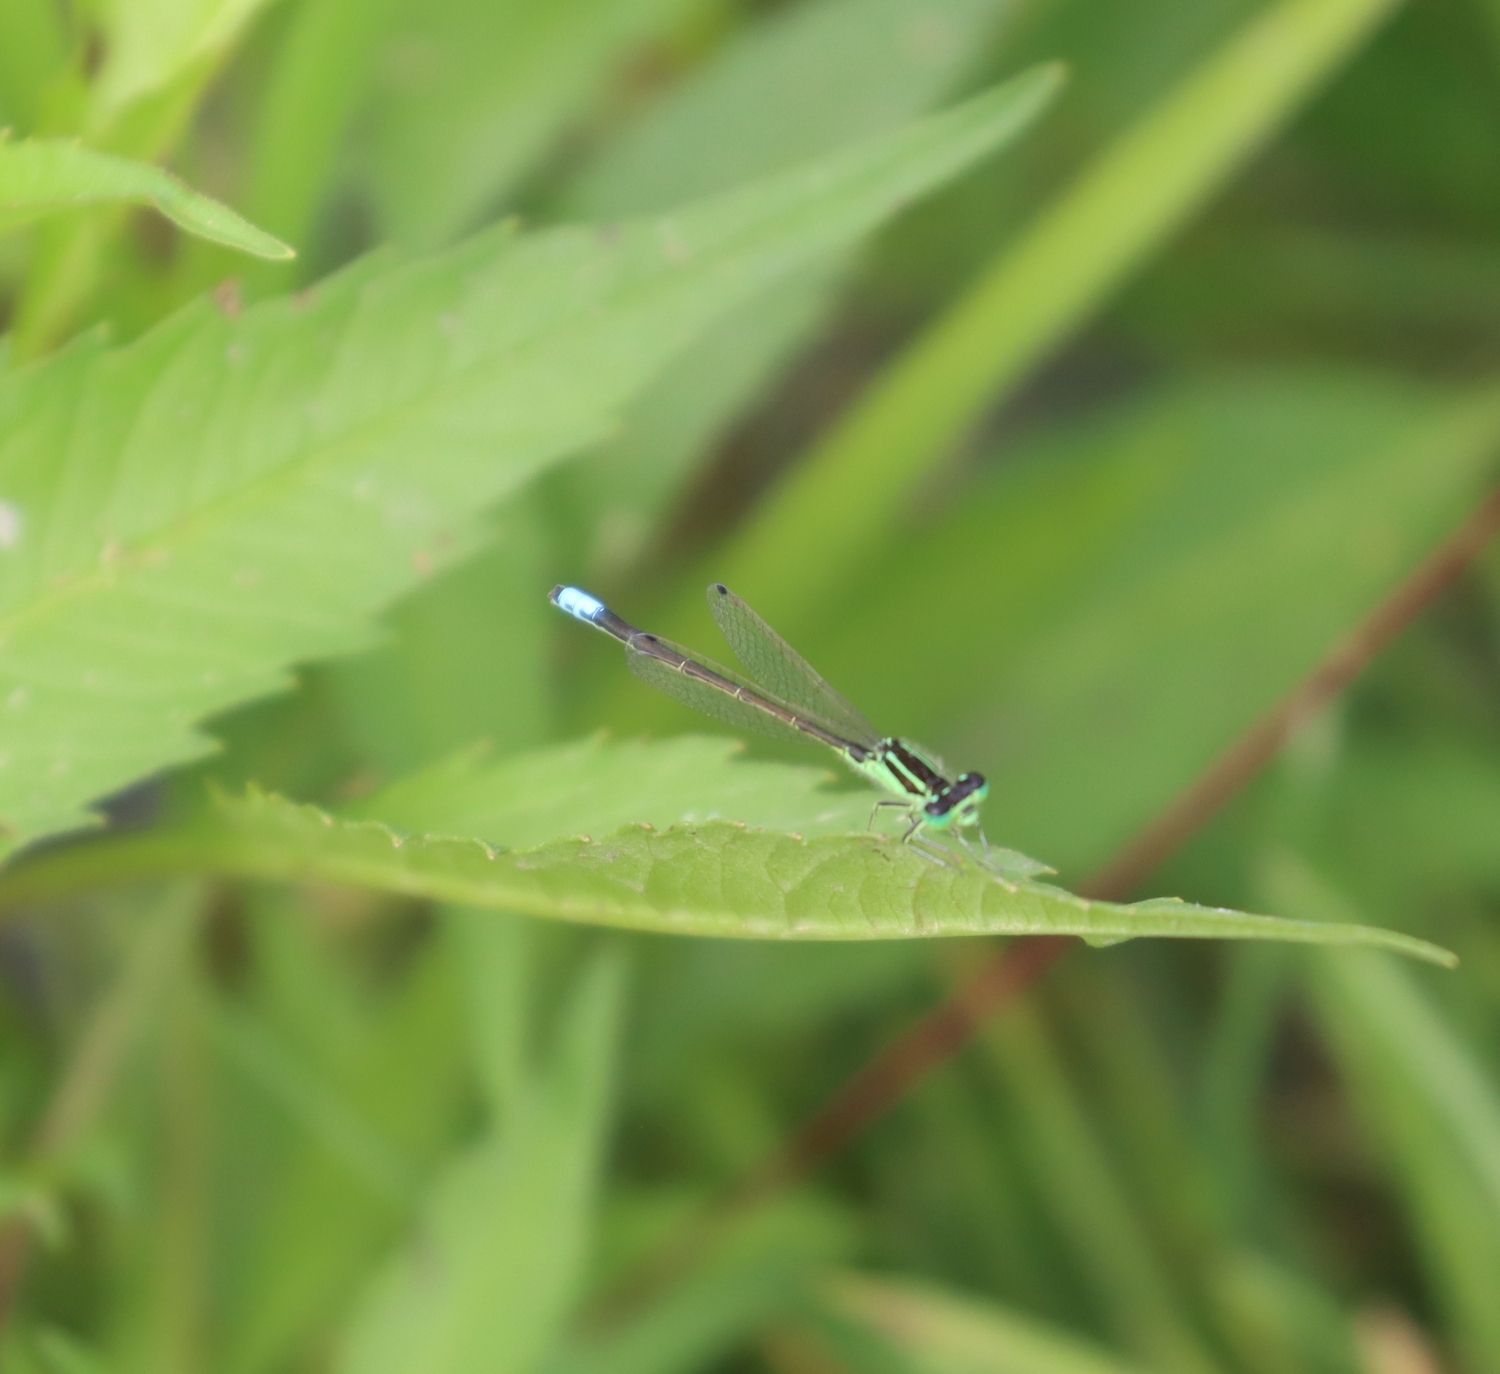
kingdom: Animalia
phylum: Arthropoda
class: Insecta
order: Odonata
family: Coenagrionidae
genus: Ischnura
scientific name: Ischnura verticalis
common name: Eastern forktail
